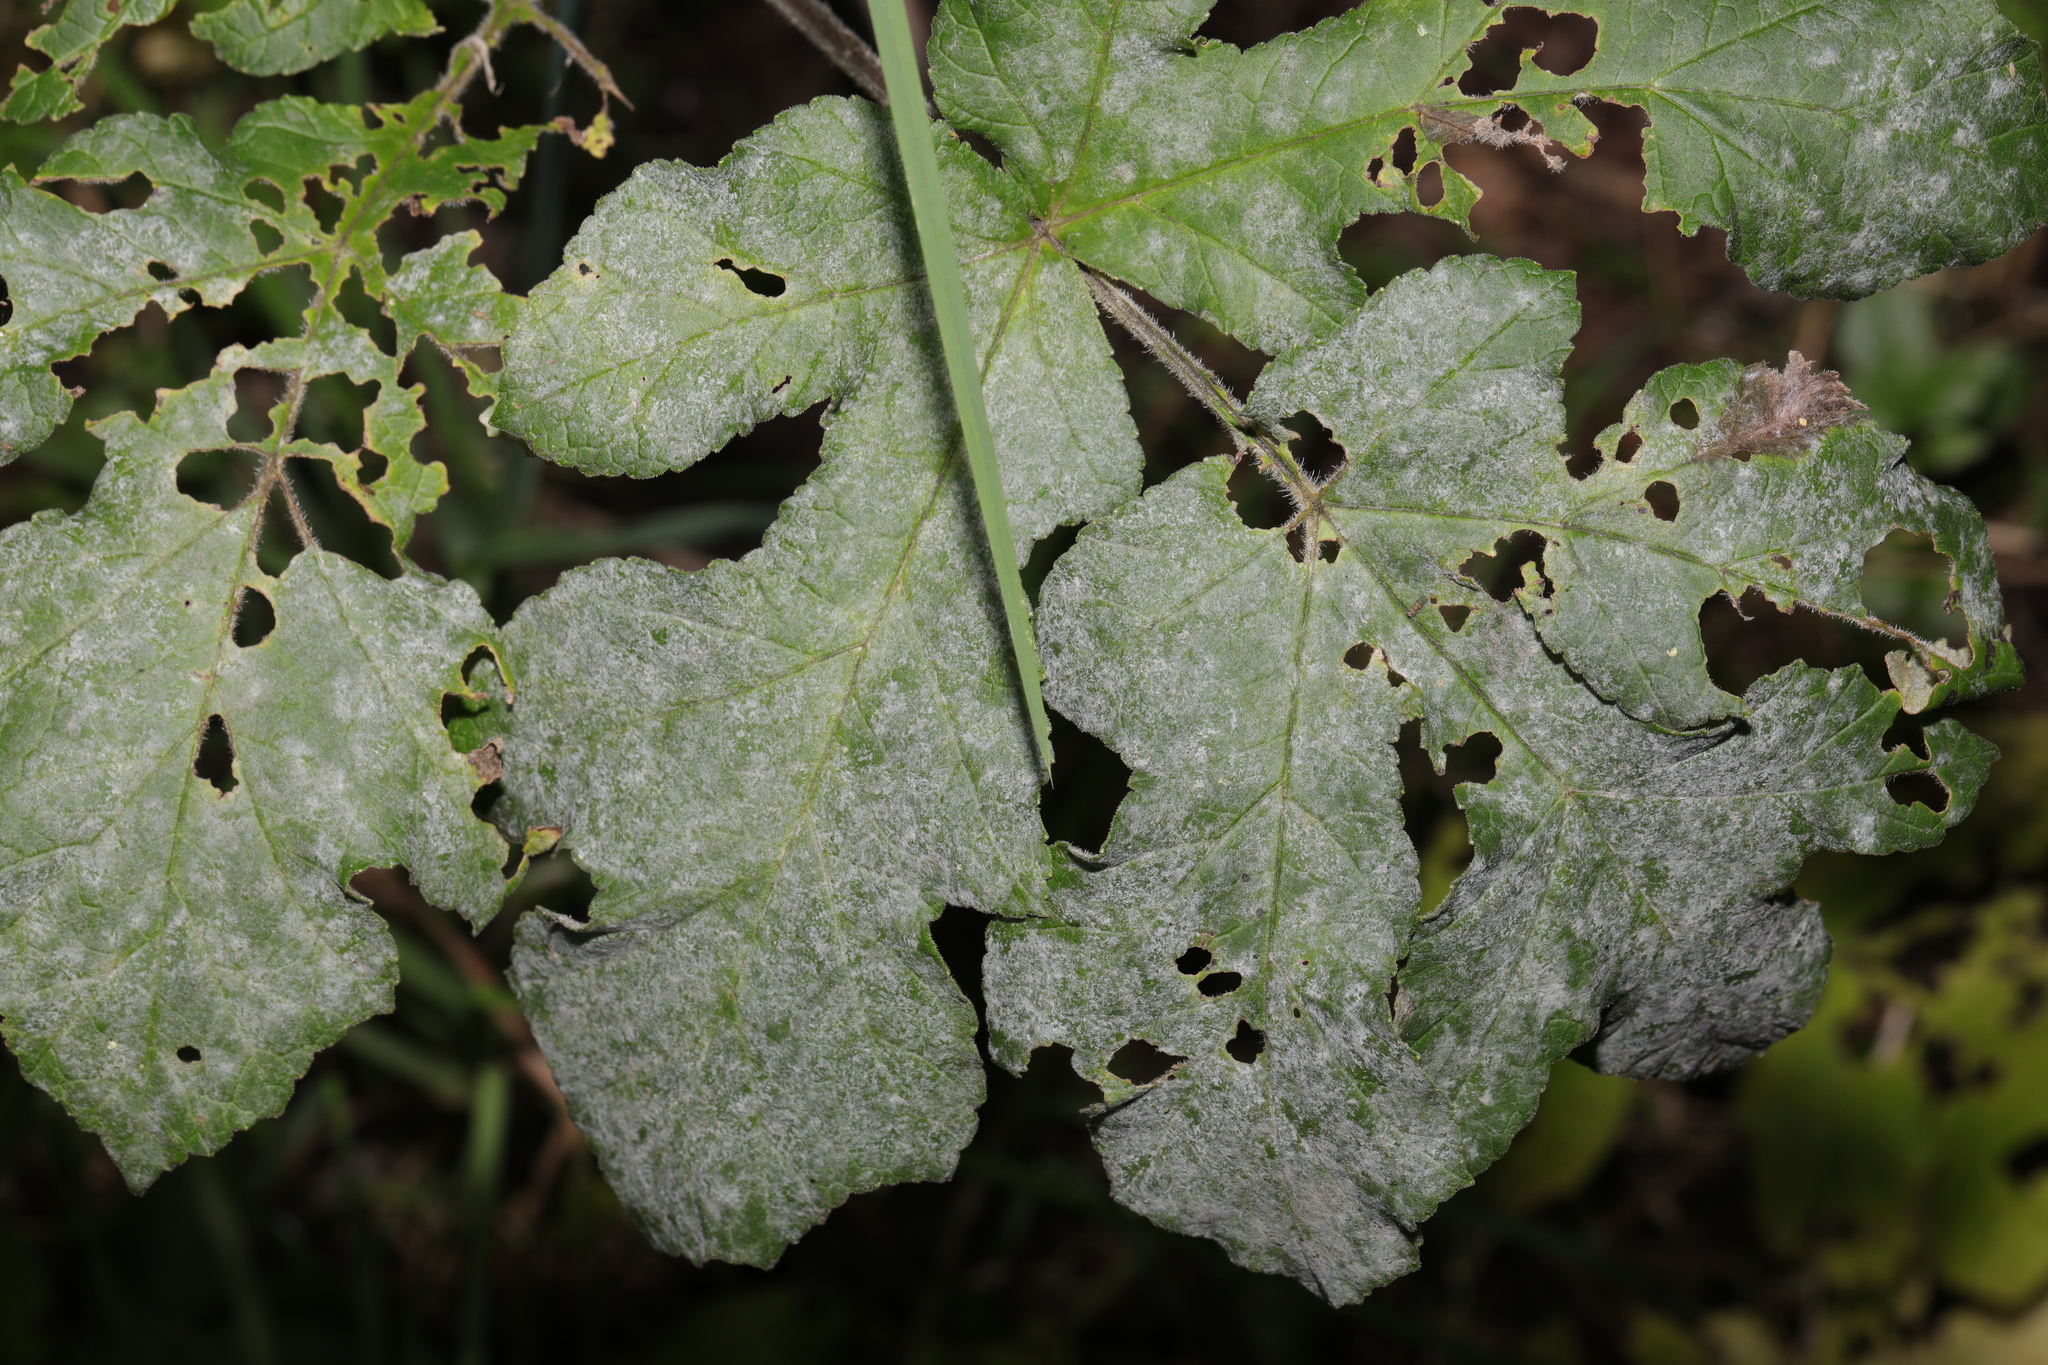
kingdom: Fungi
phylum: Ascomycota
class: Leotiomycetes
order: Helotiales
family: Erysiphaceae
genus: Erysiphe
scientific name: Erysiphe heraclei
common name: Umbellifer mildew
